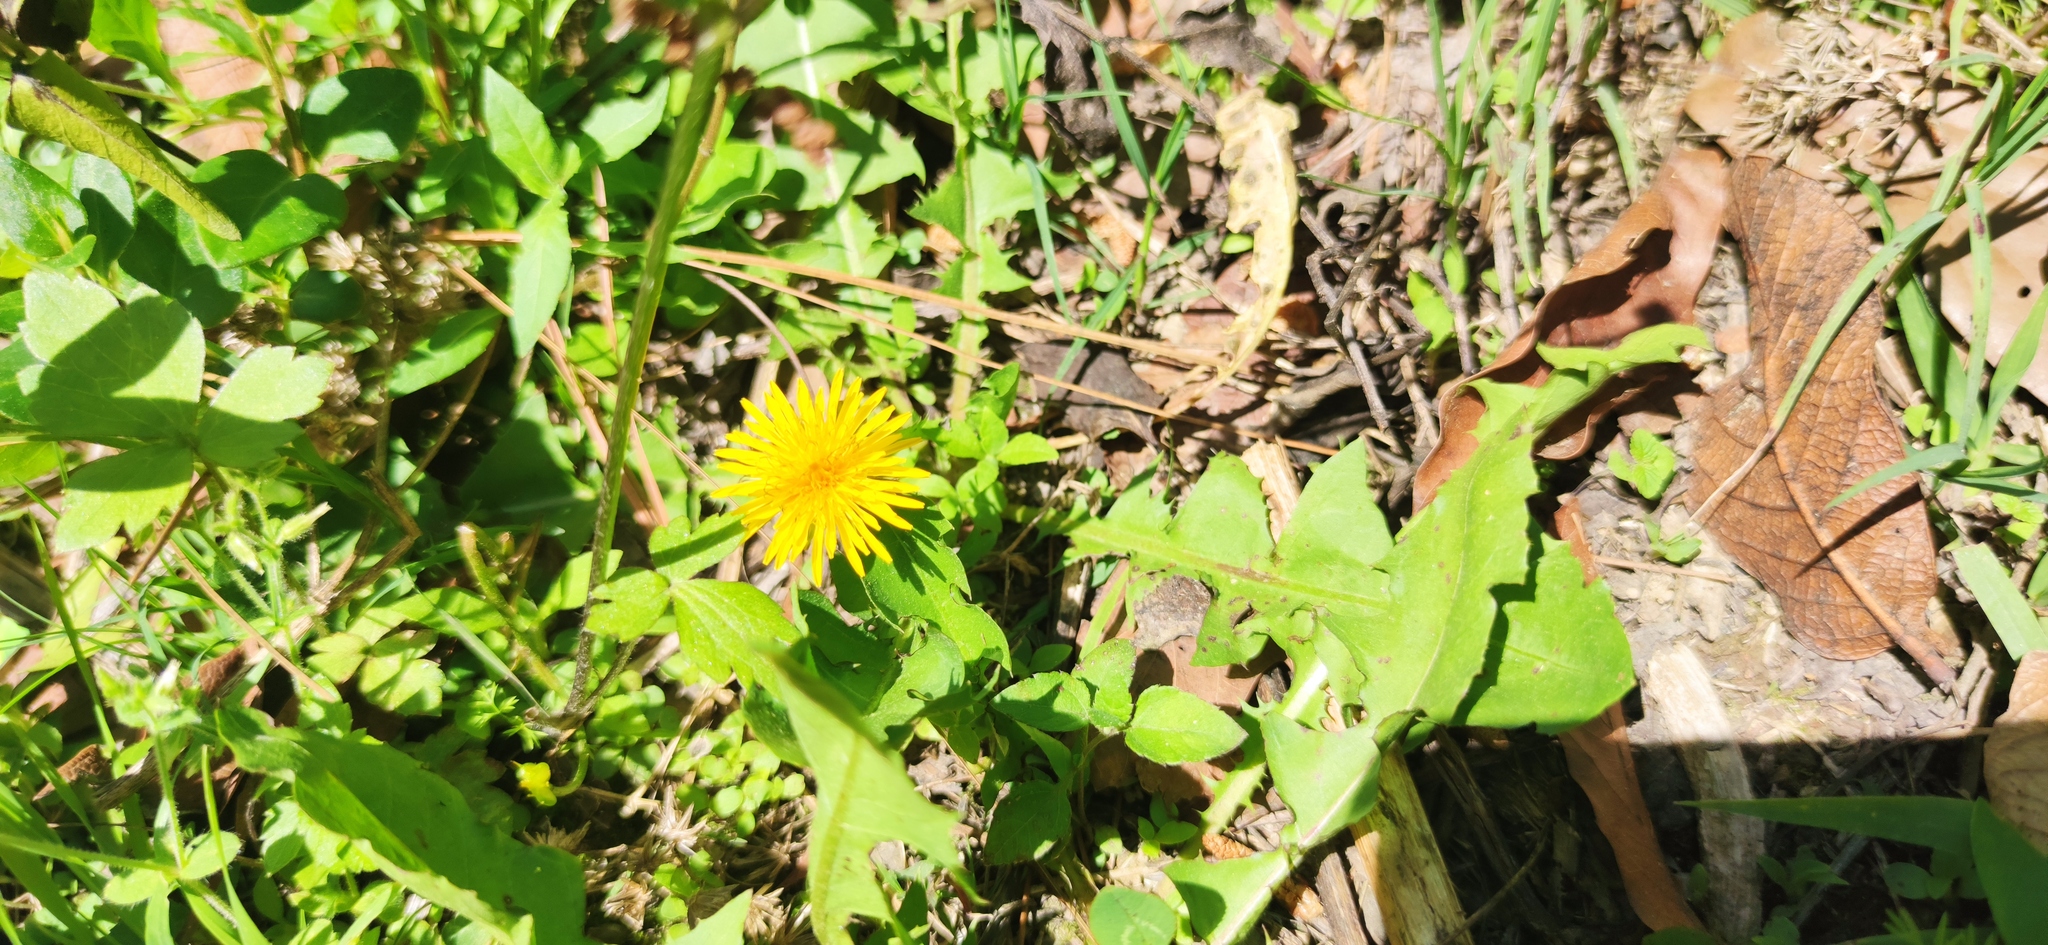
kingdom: Plantae
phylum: Tracheophyta
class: Magnoliopsida
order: Asterales
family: Asteraceae
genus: Taraxacum
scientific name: Taraxacum officinale
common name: Common dandelion
